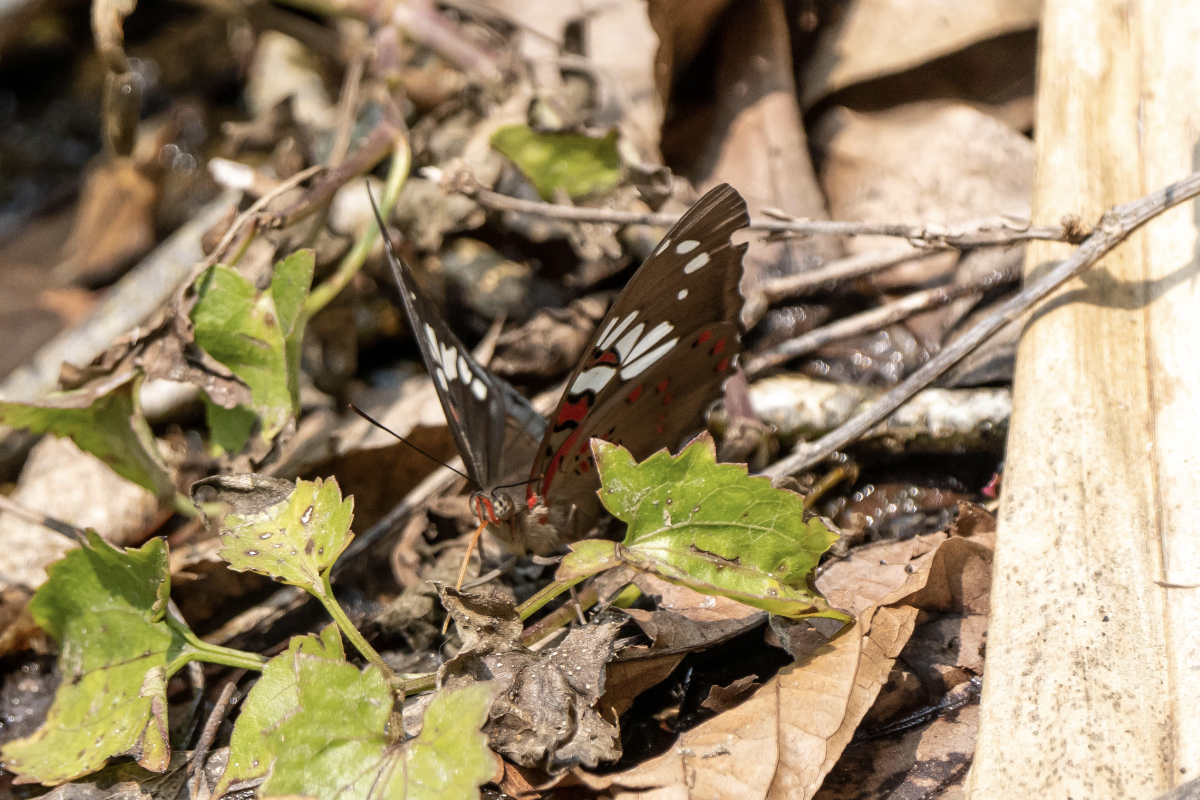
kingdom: Animalia
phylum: Arthropoda
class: Insecta
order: Lepidoptera
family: Nymphalidae
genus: Euthalia
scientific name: Euthalia lubentina
